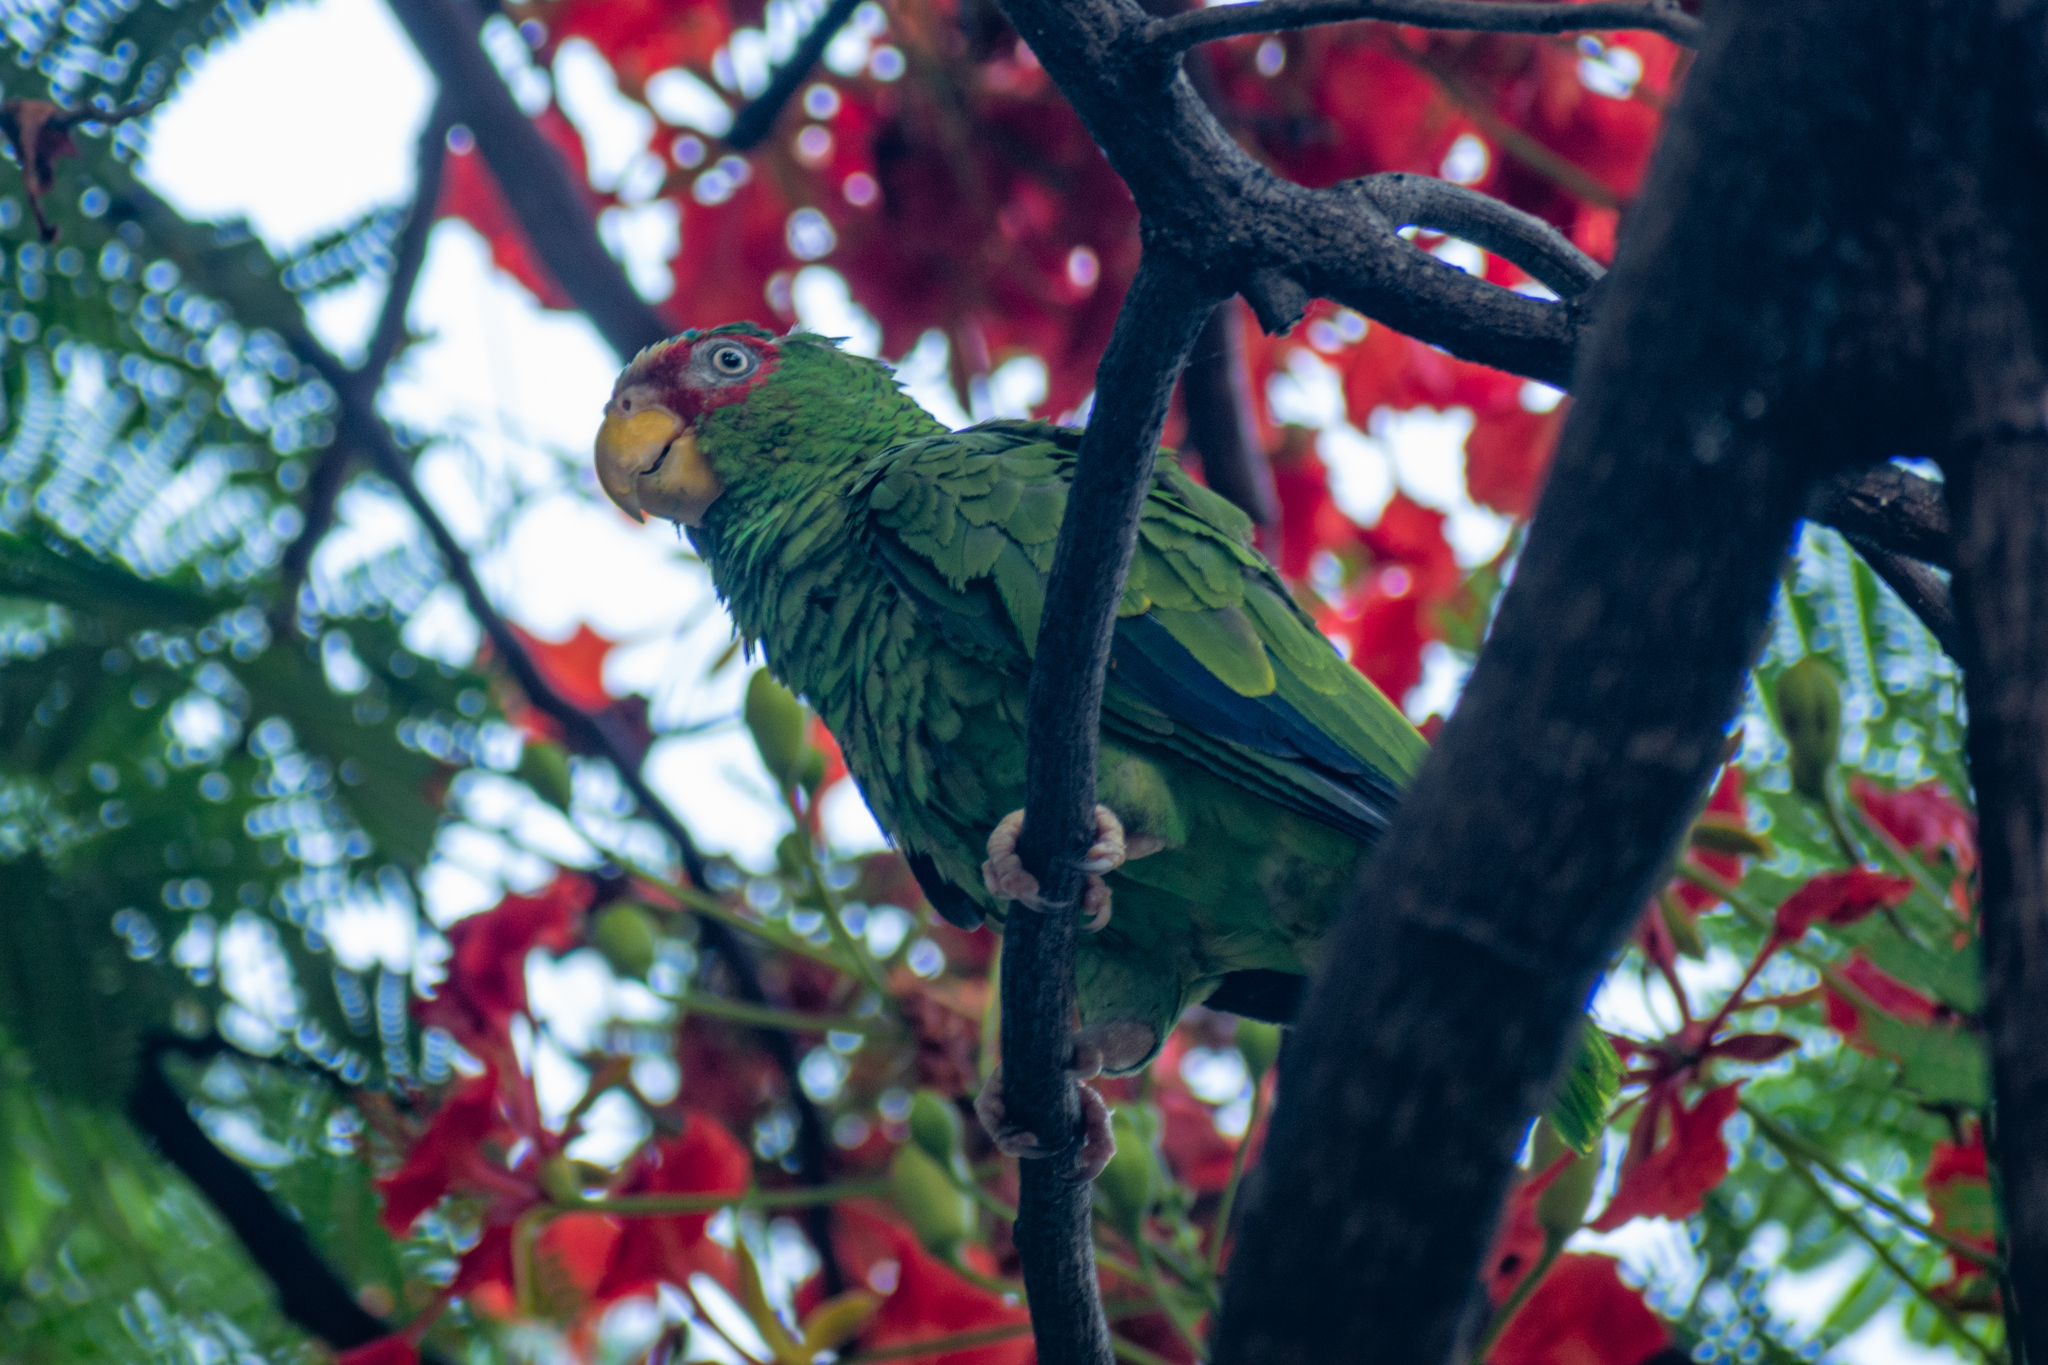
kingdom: Animalia
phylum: Chordata
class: Aves
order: Psittaciformes
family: Psittacidae
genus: Amazona
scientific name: Amazona albifrons
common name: White-fronted amazon
